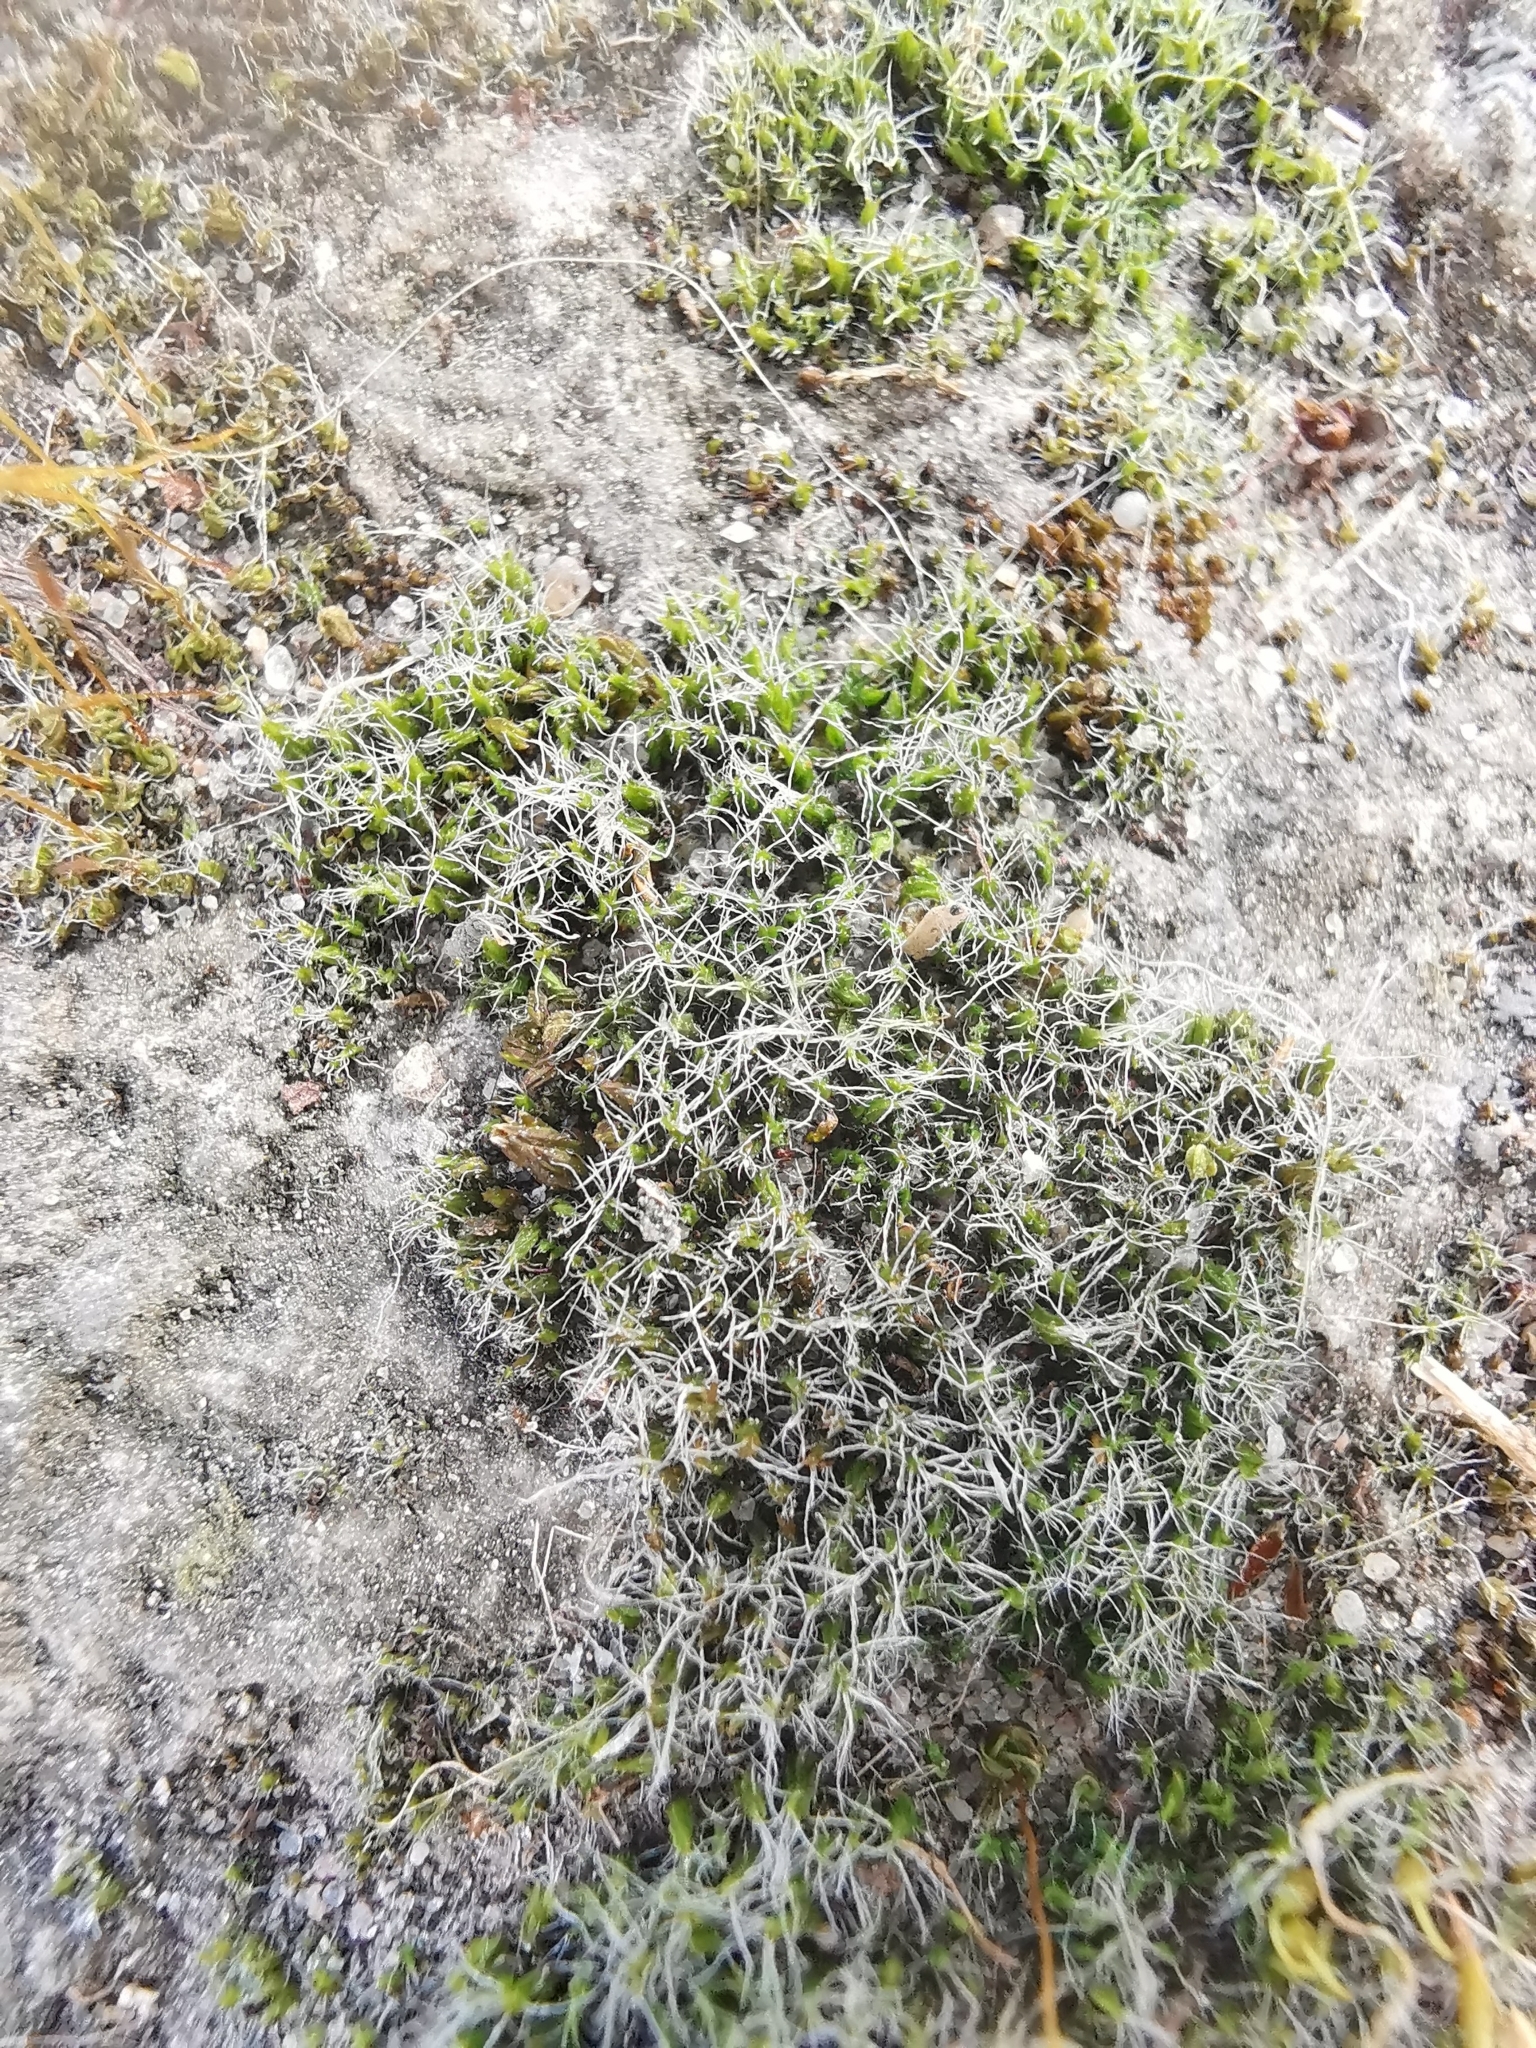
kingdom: Plantae
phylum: Bryophyta
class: Bryopsida
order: Grimmiales
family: Grimmiaceae
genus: Grimmia
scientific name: Grimmia pulvinata
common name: Grey-cushioned grimmia
